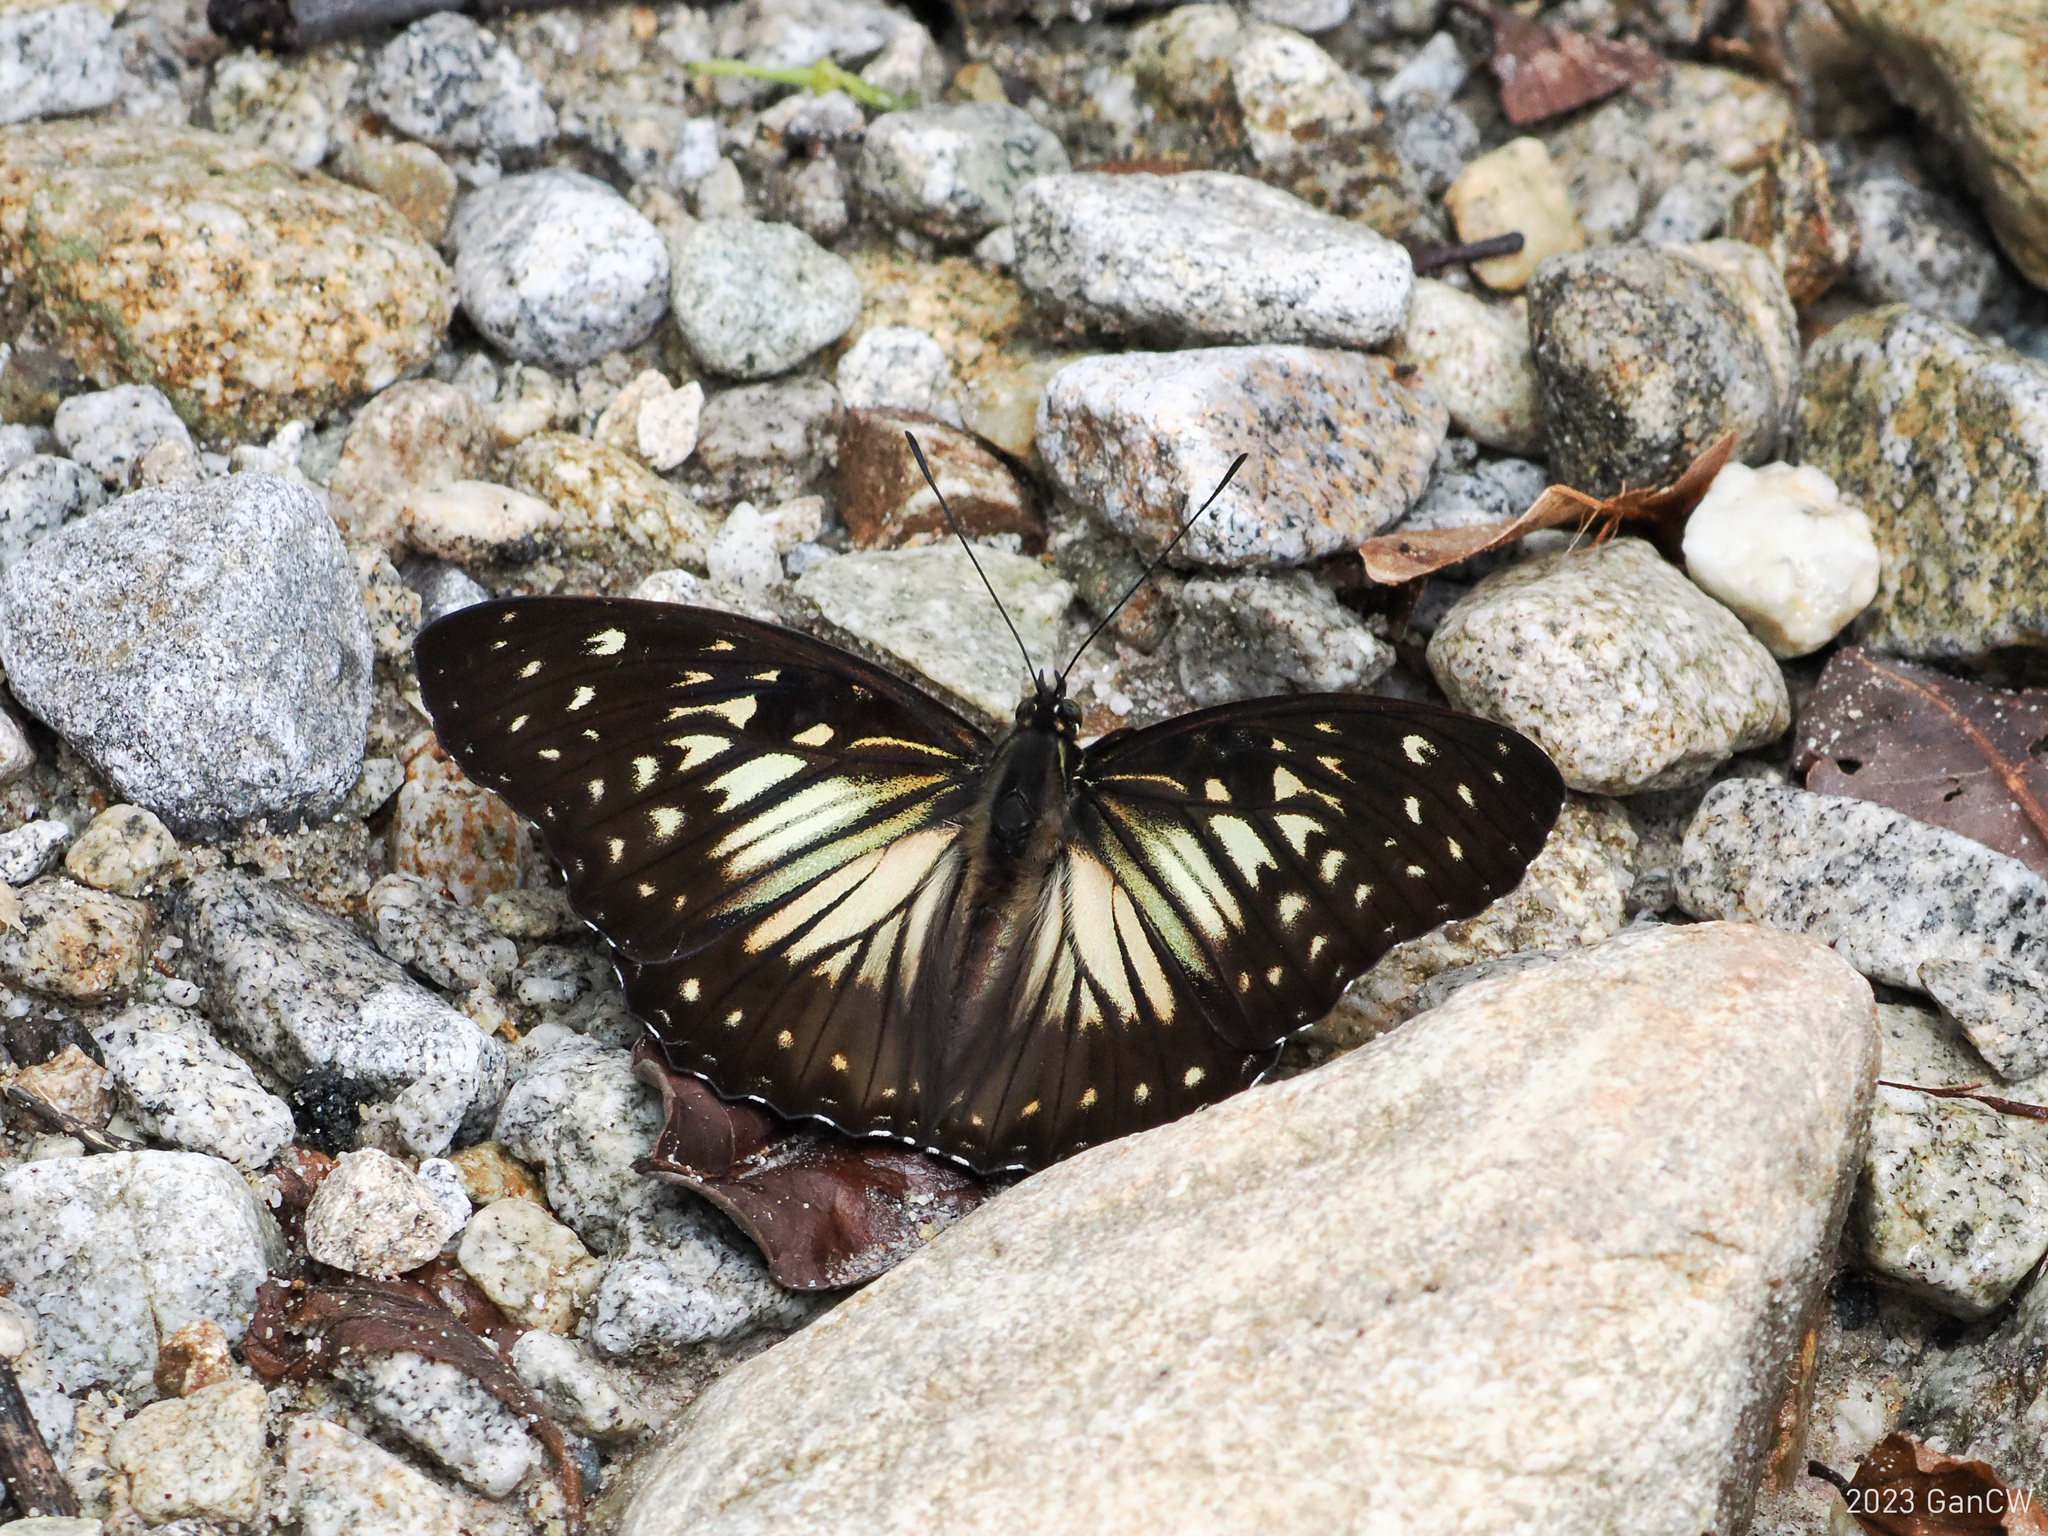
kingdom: Animalia
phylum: Arthropoda
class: Insecta
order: Lepidoptera
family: Nymphalidae
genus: Hestinalis
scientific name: Hestinalis divona
